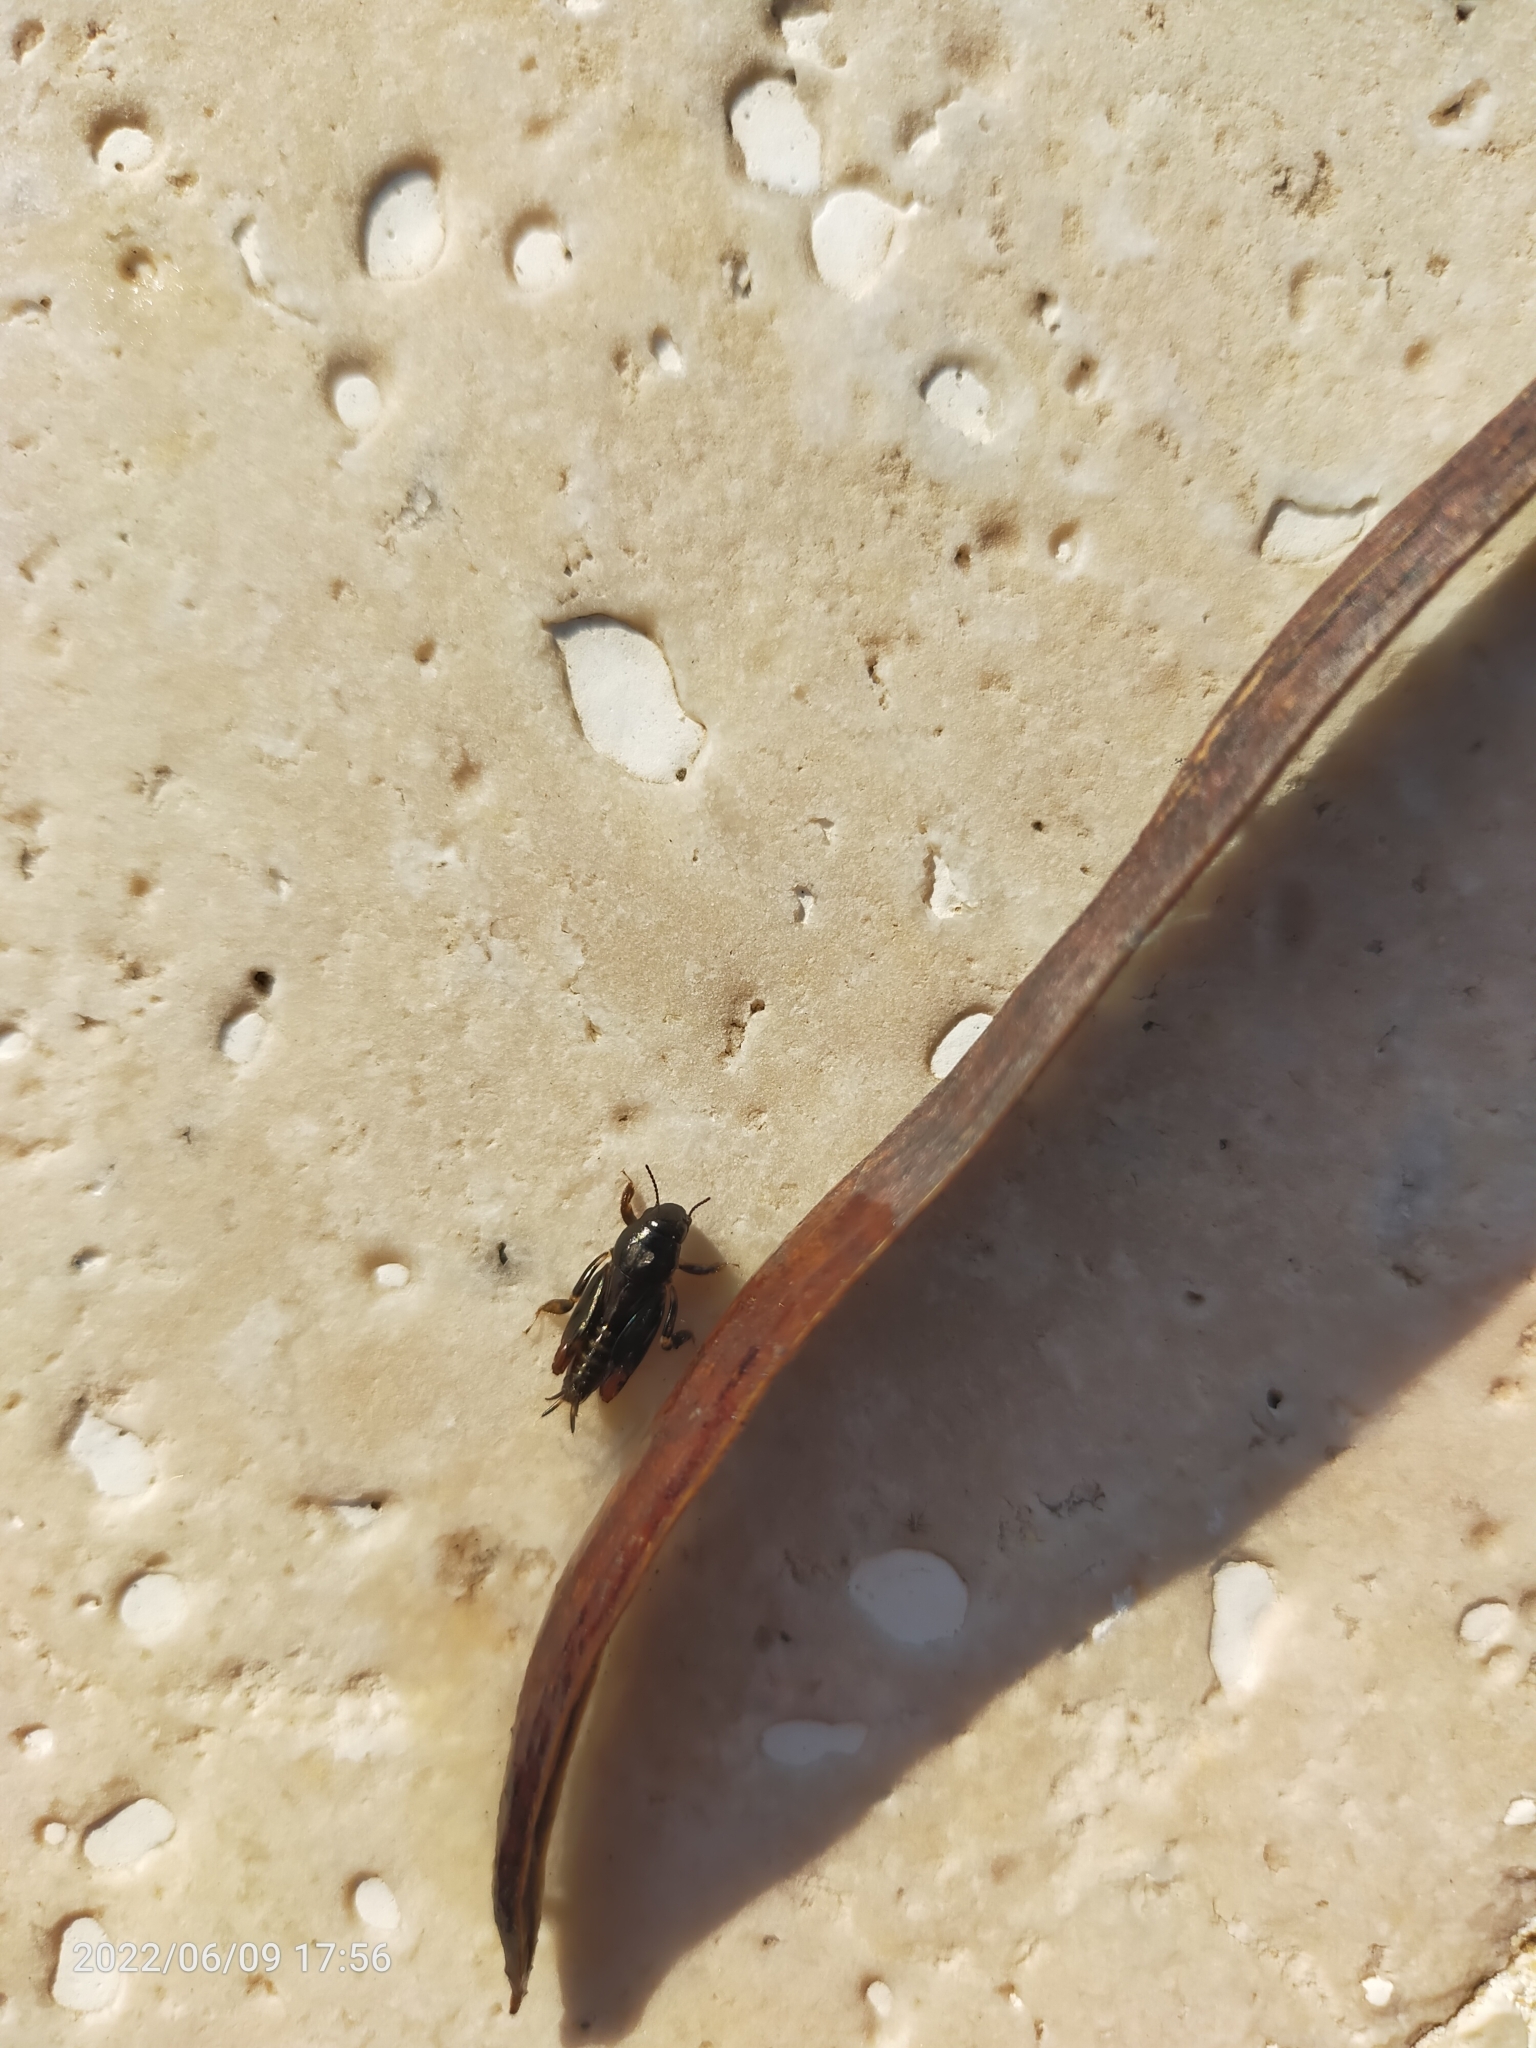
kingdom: Animalia
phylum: Arthropoda
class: Insecta
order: Orthoptera
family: Tridactylidae
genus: Xya
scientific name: Xya pfaendleri
